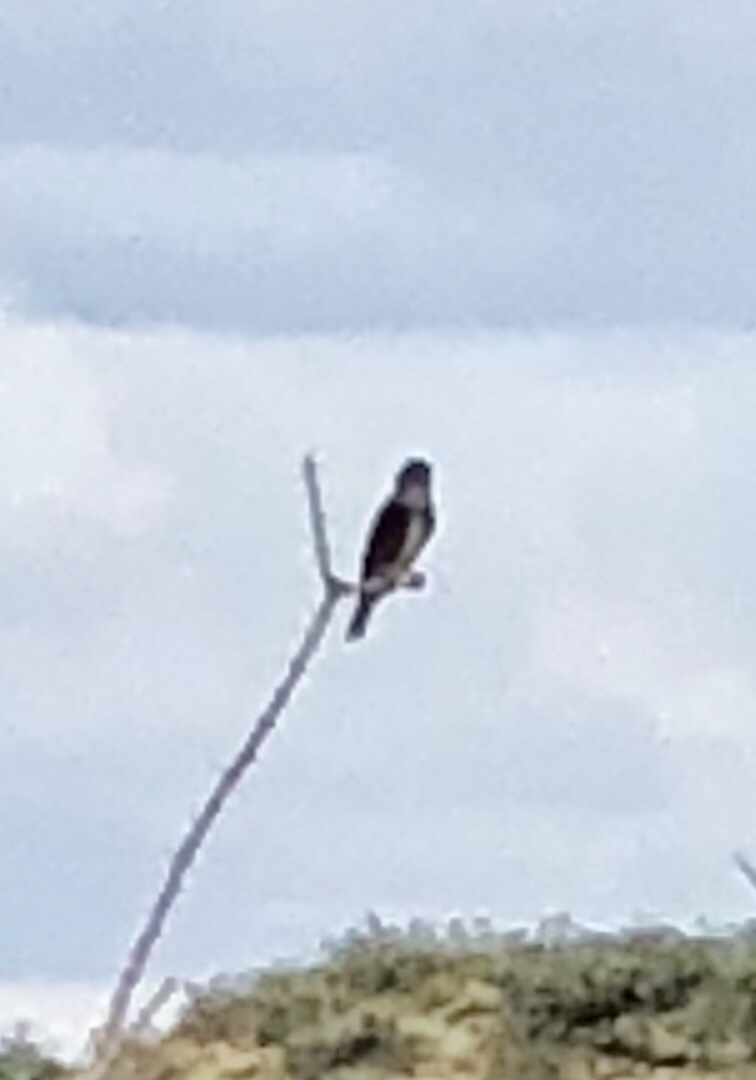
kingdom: Animalia
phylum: Chordata
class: Aves
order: Passeriformes
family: Tyrannidae
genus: Contopus
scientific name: Contopus cooperi
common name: Olive-sided flycatcher
